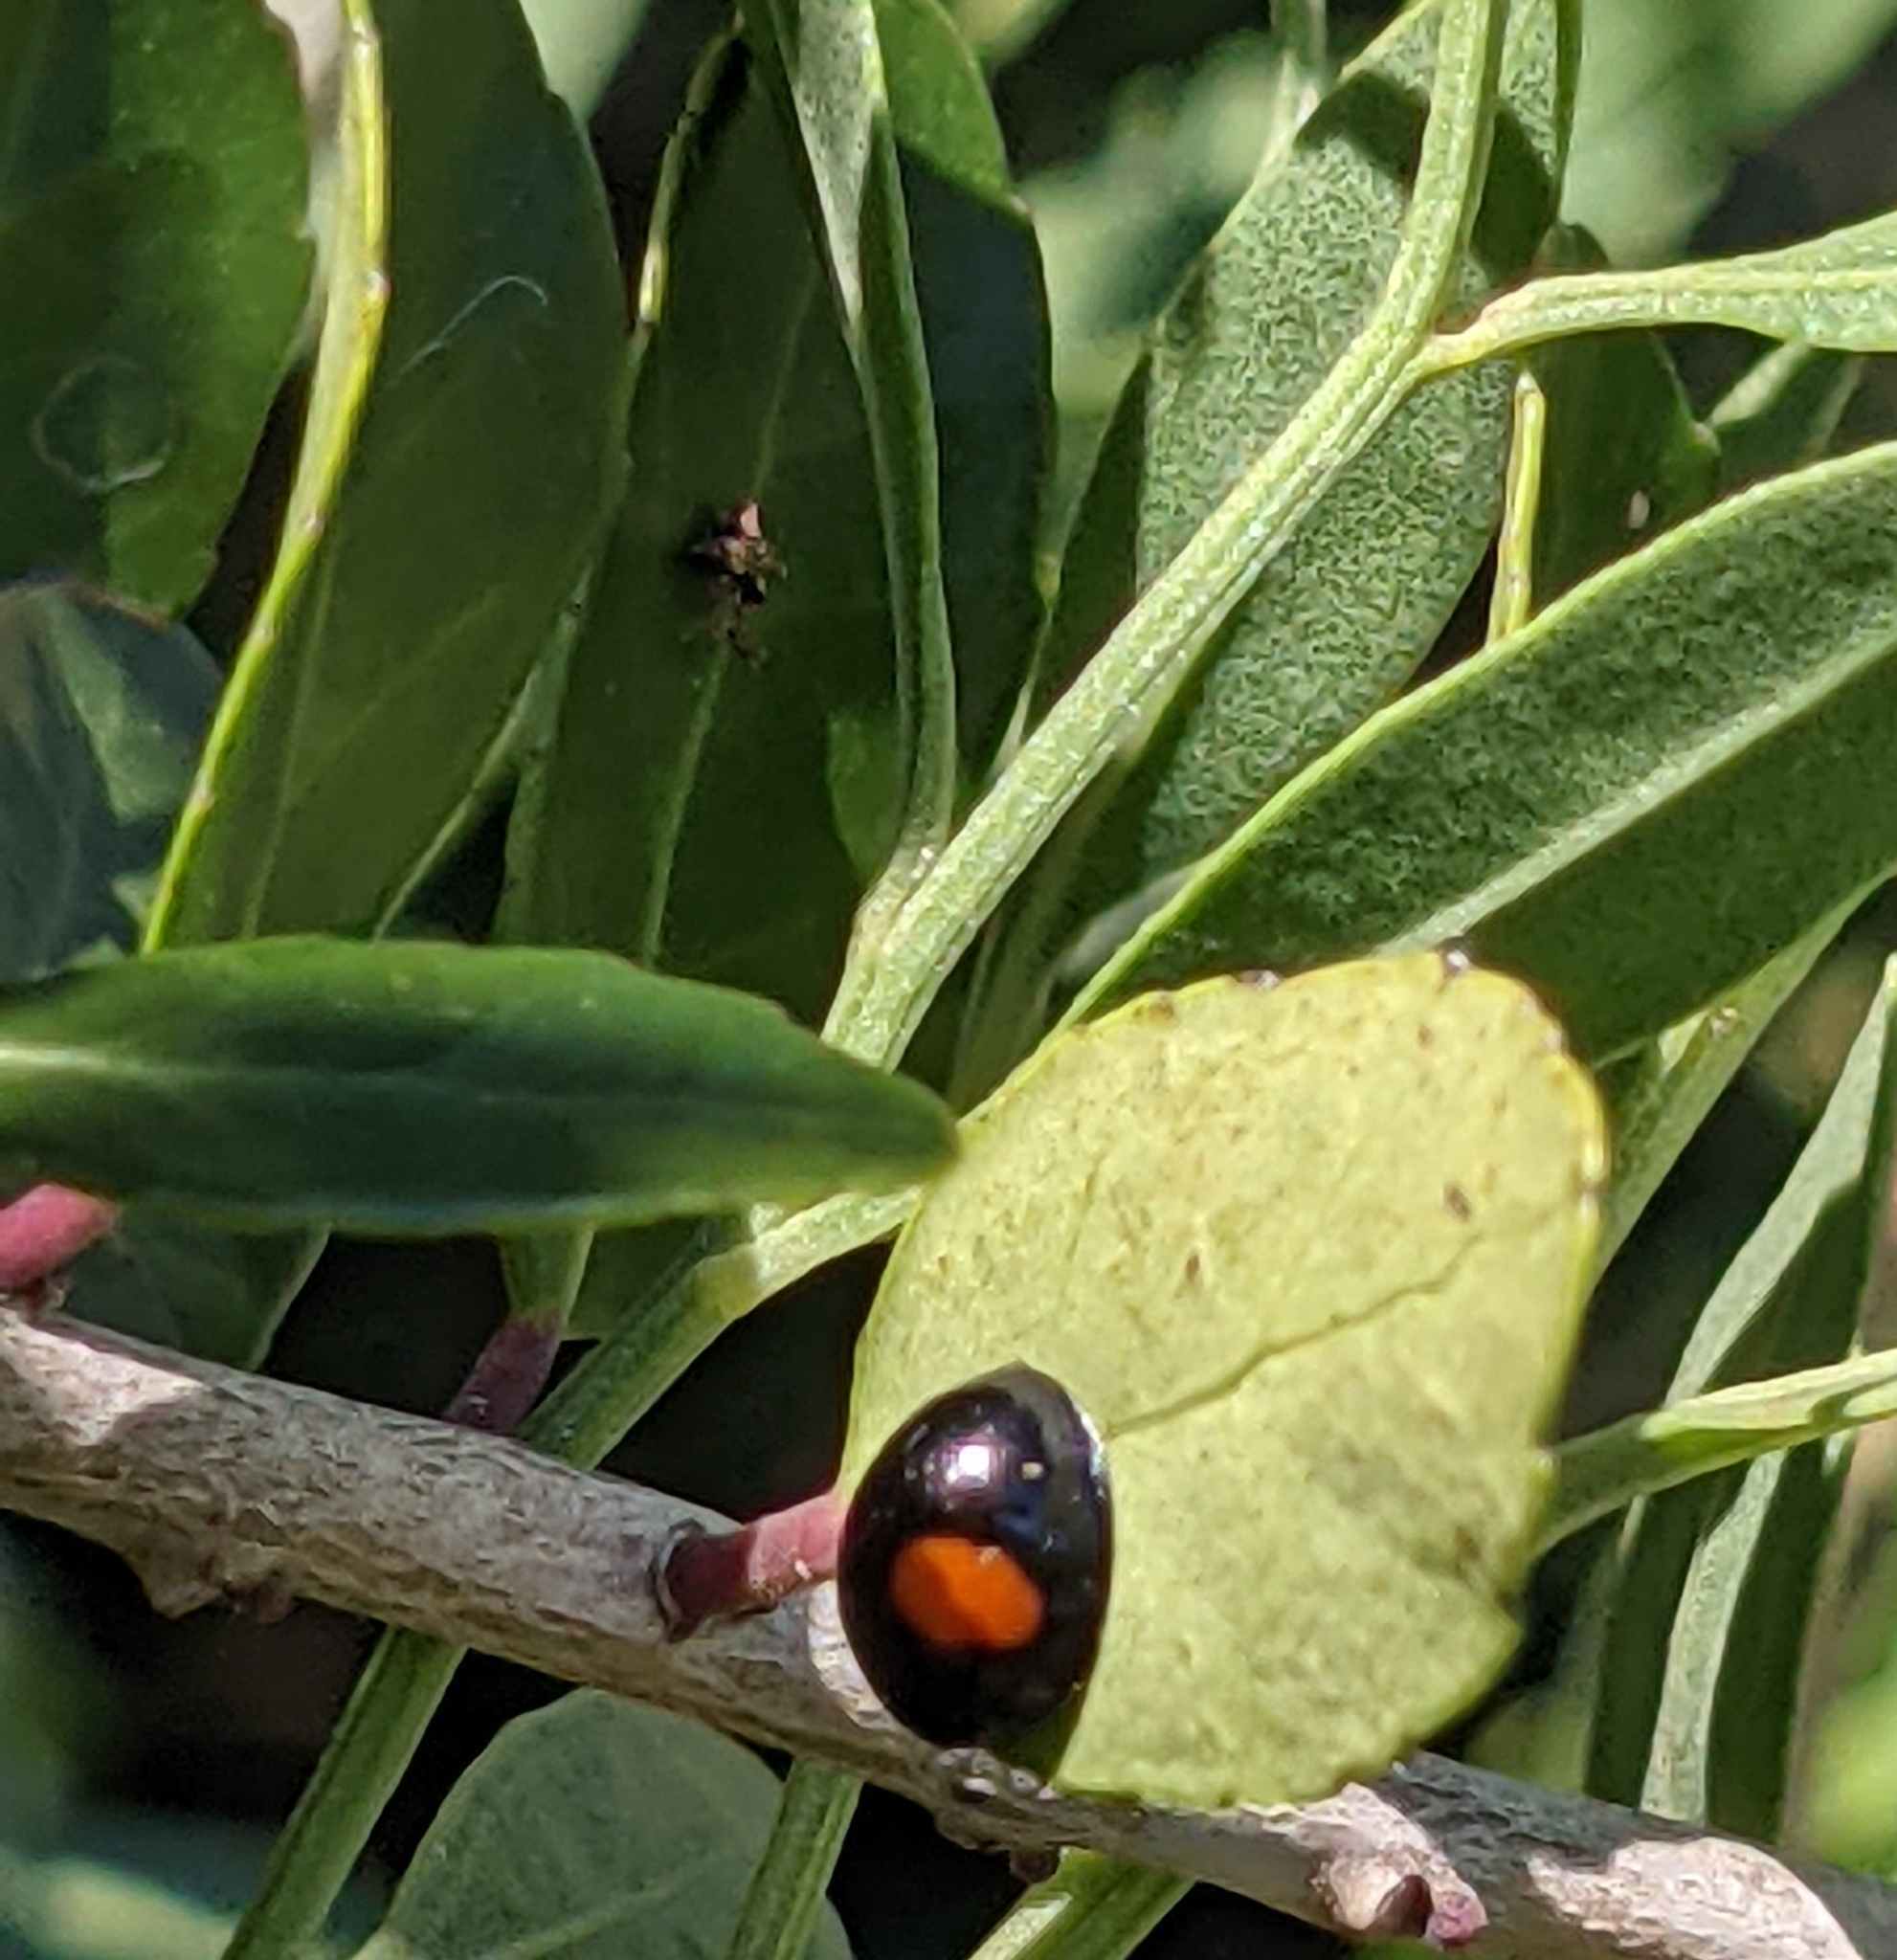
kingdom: Animalia
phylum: Arthropoda
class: Insecta
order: Coleoptera
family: Coccinellidae
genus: Chilocorus
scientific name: Chilocorus cacti
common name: Cactus lady beetle
